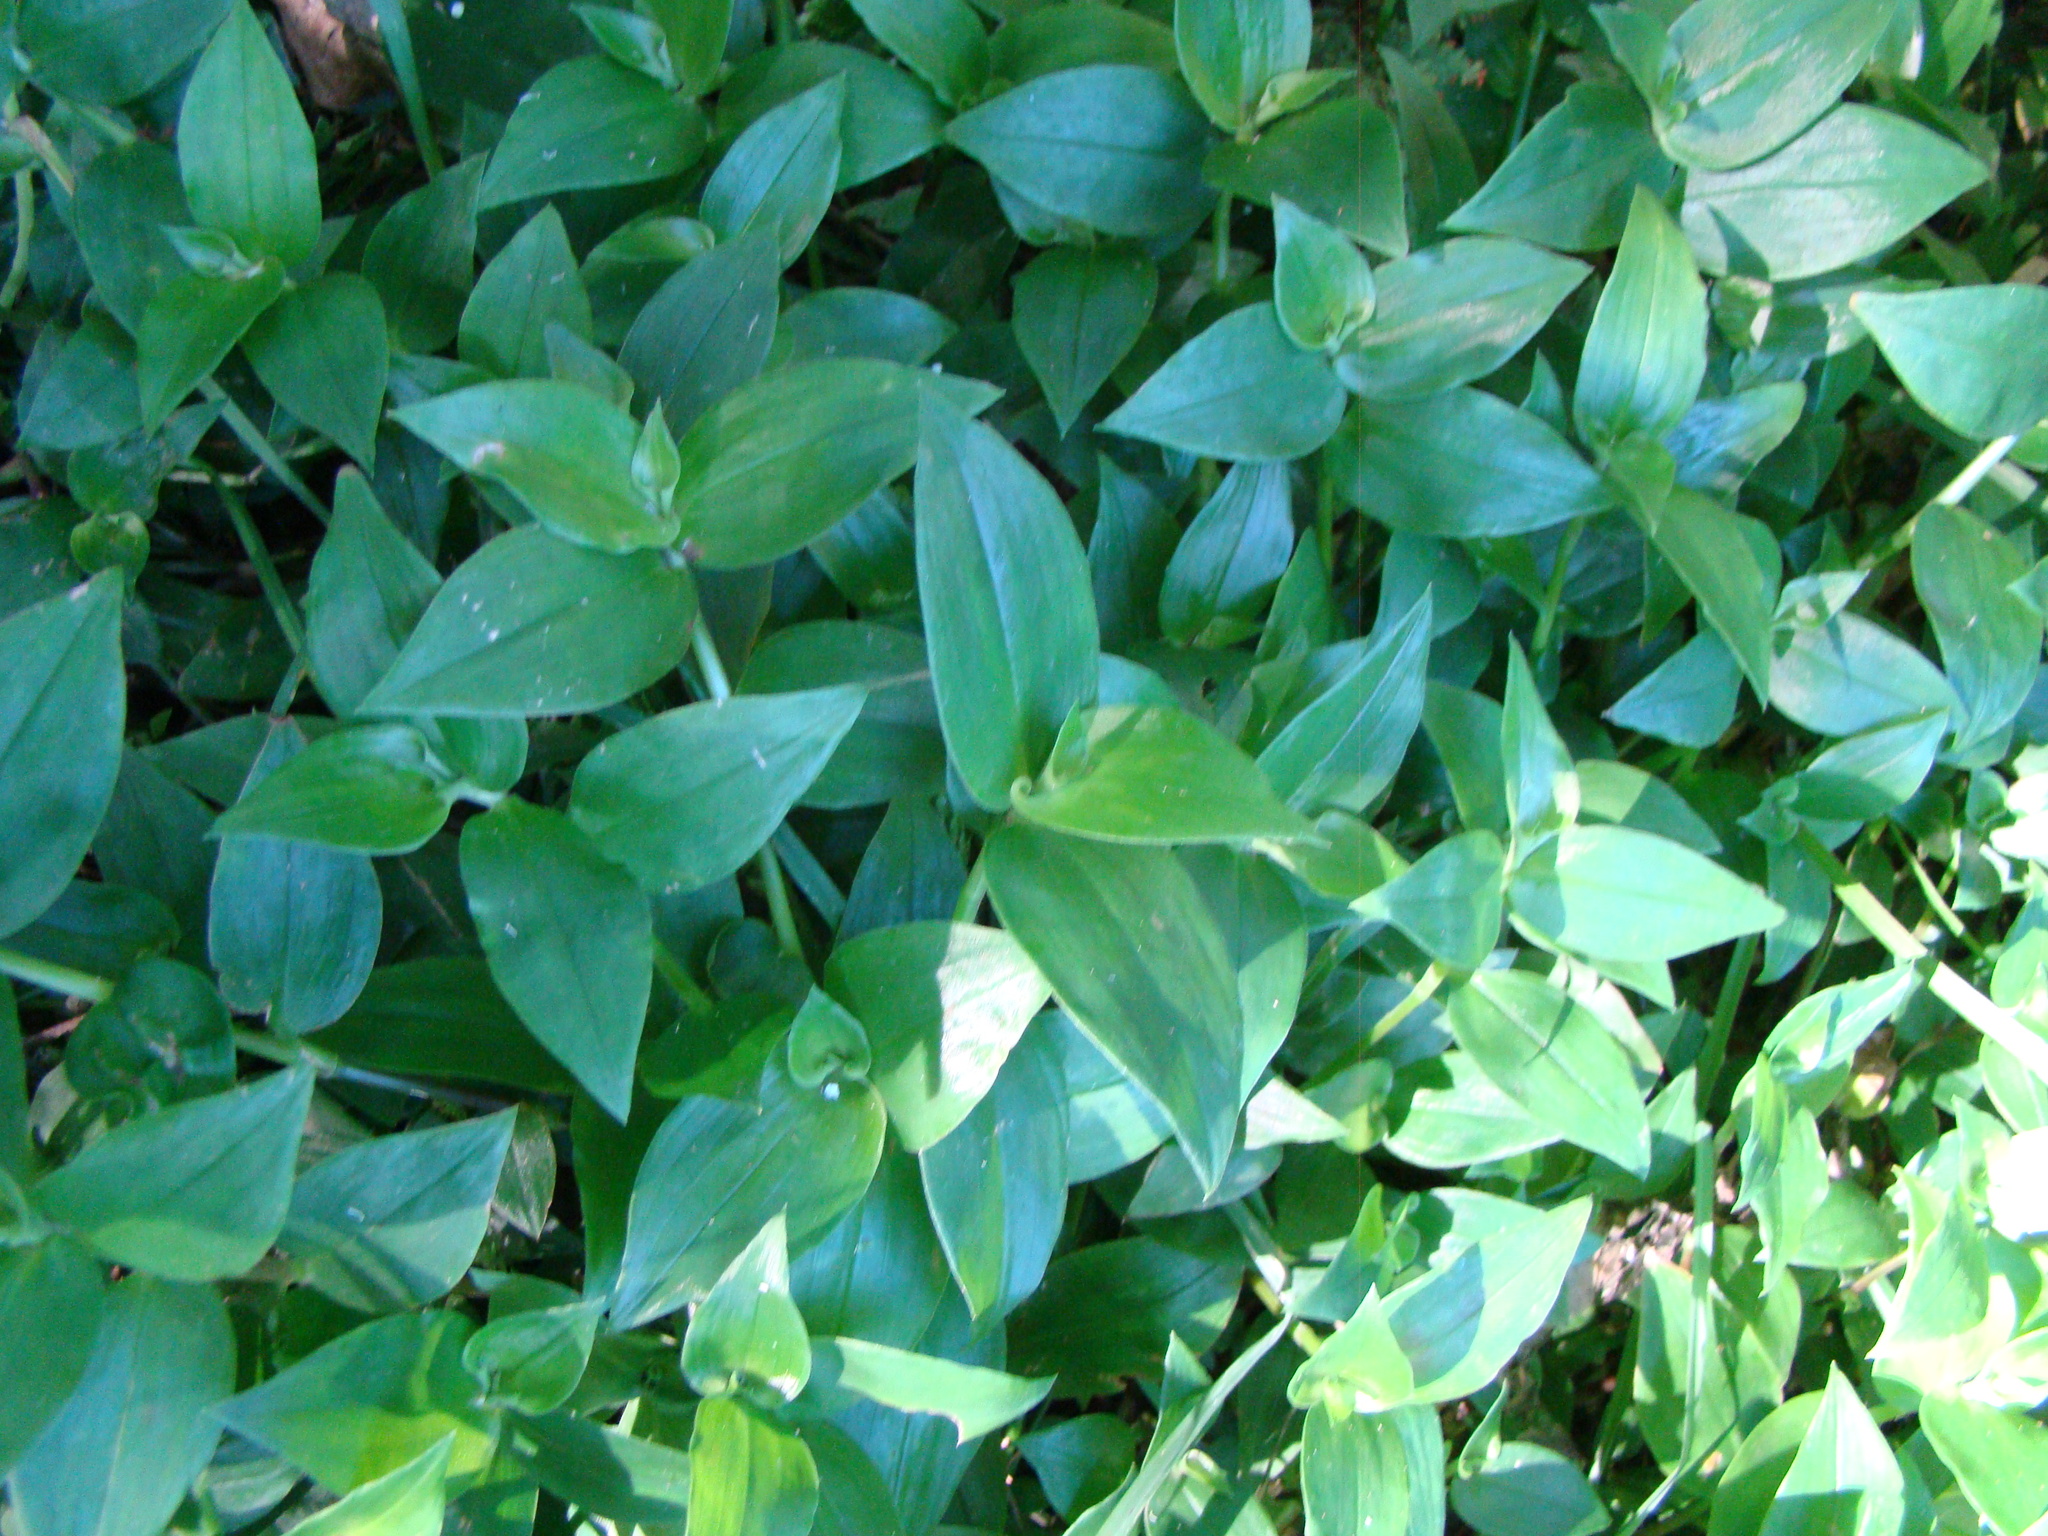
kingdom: Plantae
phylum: Tracheophyta
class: Liliopsida
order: Commelinales
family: Commelinaceae
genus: Tradescantia
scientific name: Tradescantia fluminensis
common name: Wandering-jew
